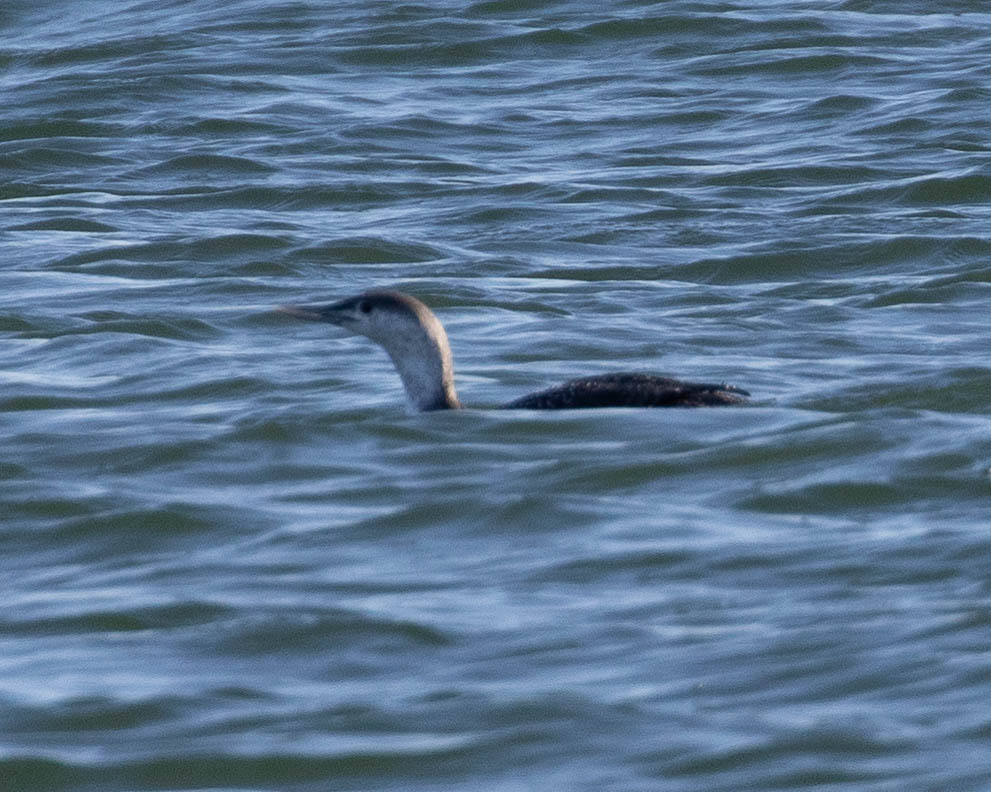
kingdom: Animalia
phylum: Chordata
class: Aves
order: Gaviiformes
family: Gaviidae
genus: Gavia
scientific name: Gavia stellata
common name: Red-throated loon
